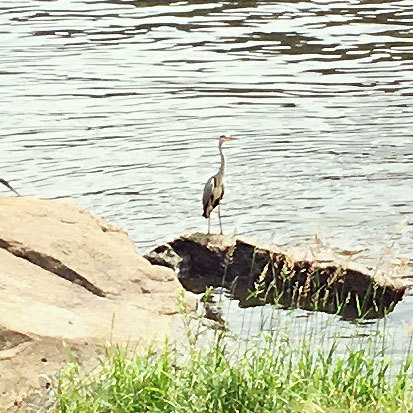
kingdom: Animalia
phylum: Chordata
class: Aves
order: Pelecaniformes
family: Ardeidae
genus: Ardea
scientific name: Ardea cinerea
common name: Grey heron
